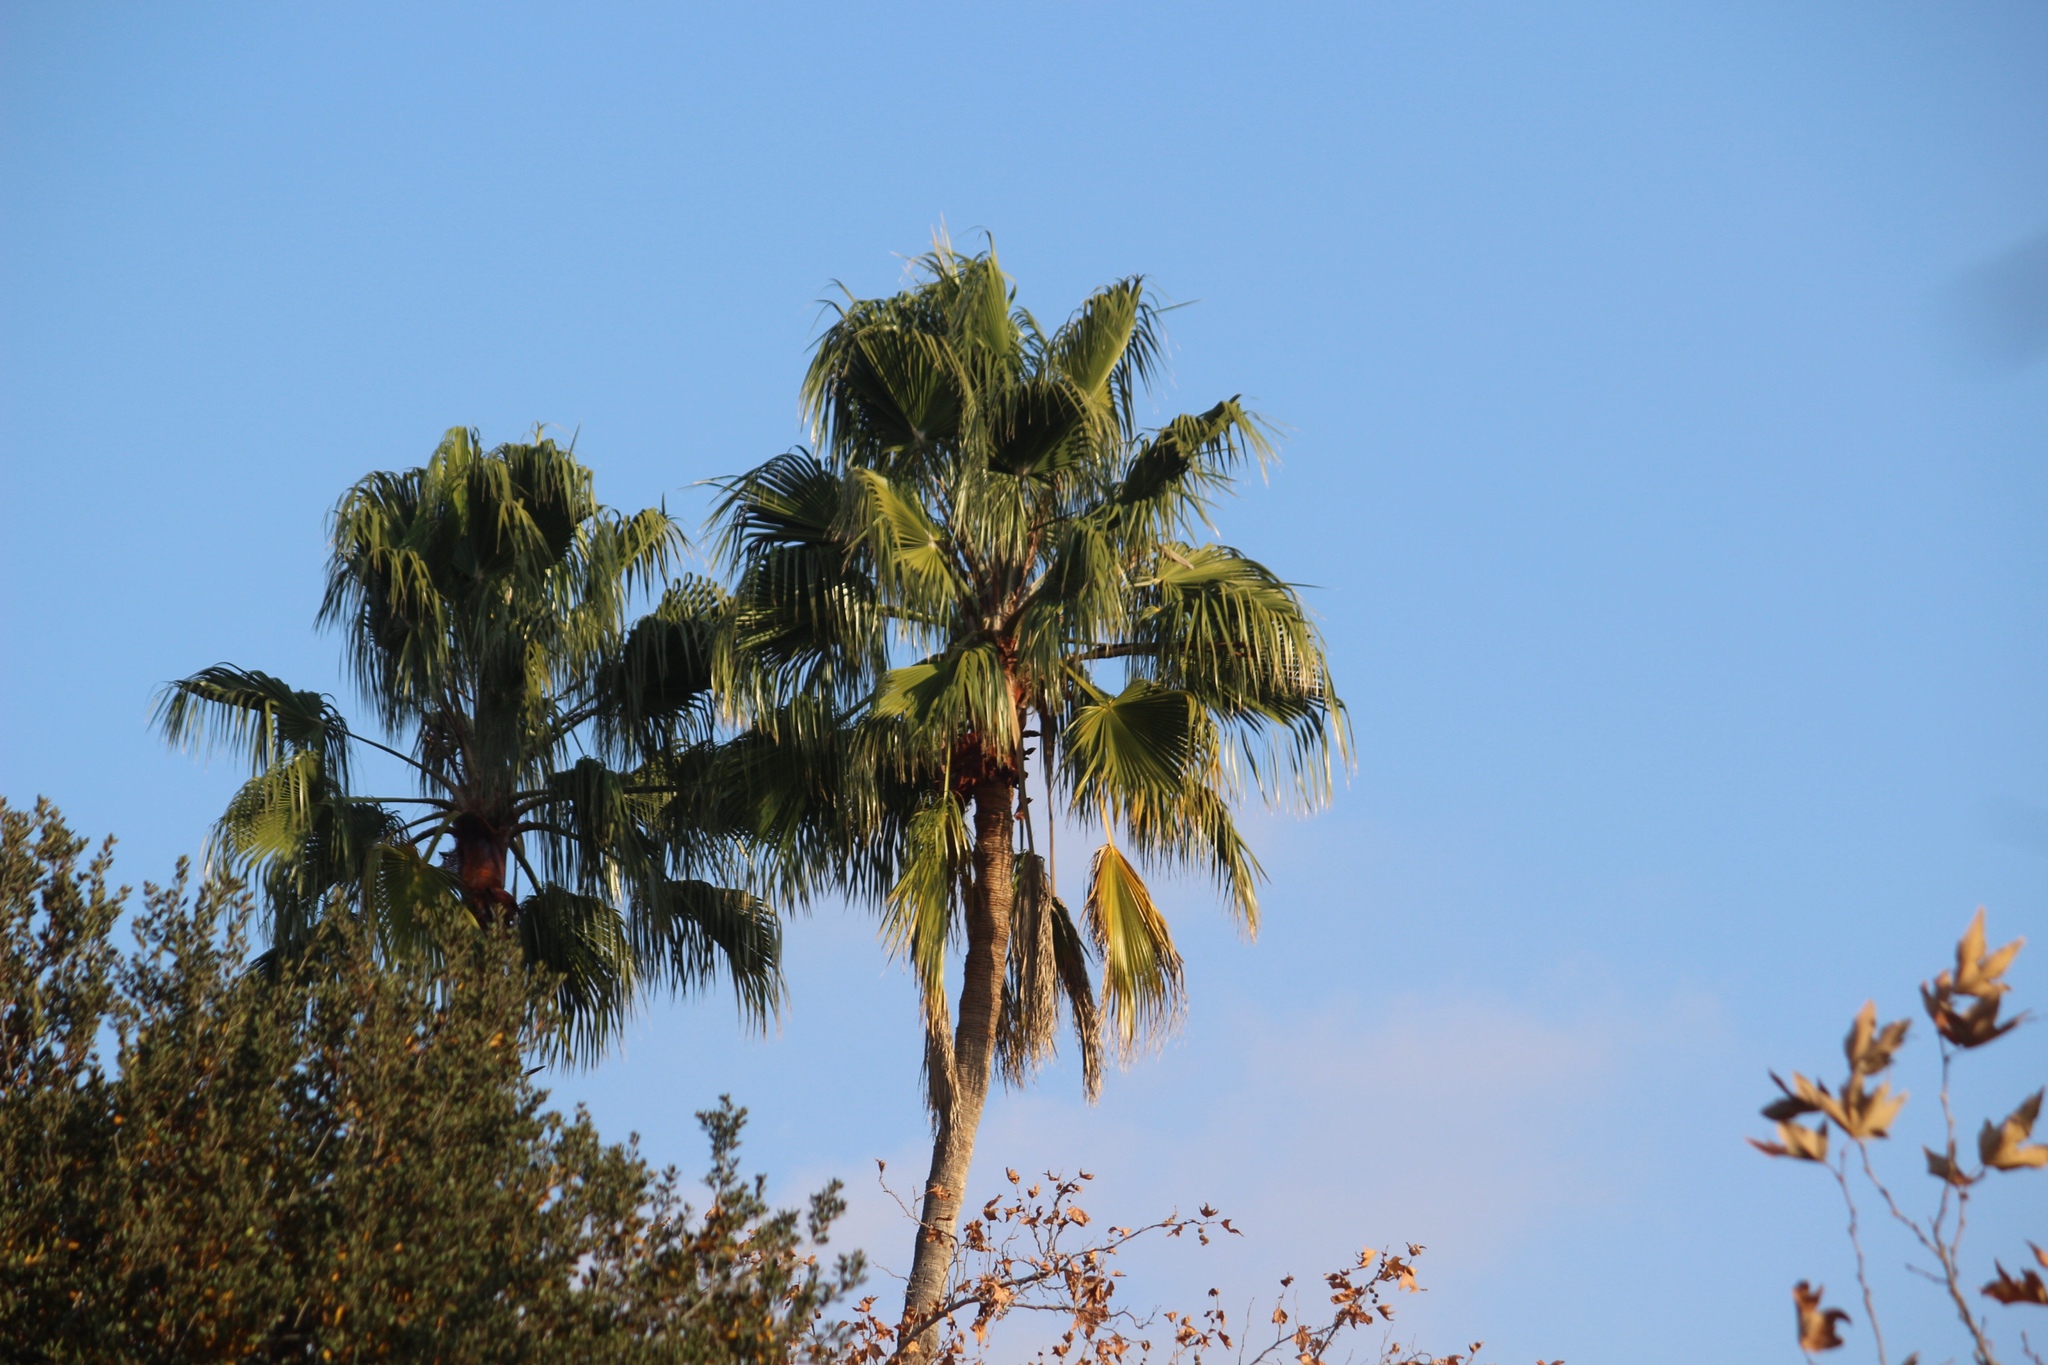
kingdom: Plantae
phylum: Tracheophyta
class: Liliopsida
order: Arecales
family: Arecaceae
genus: Washingtonia
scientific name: Washingtonia robusta
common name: Mexican fan palm
